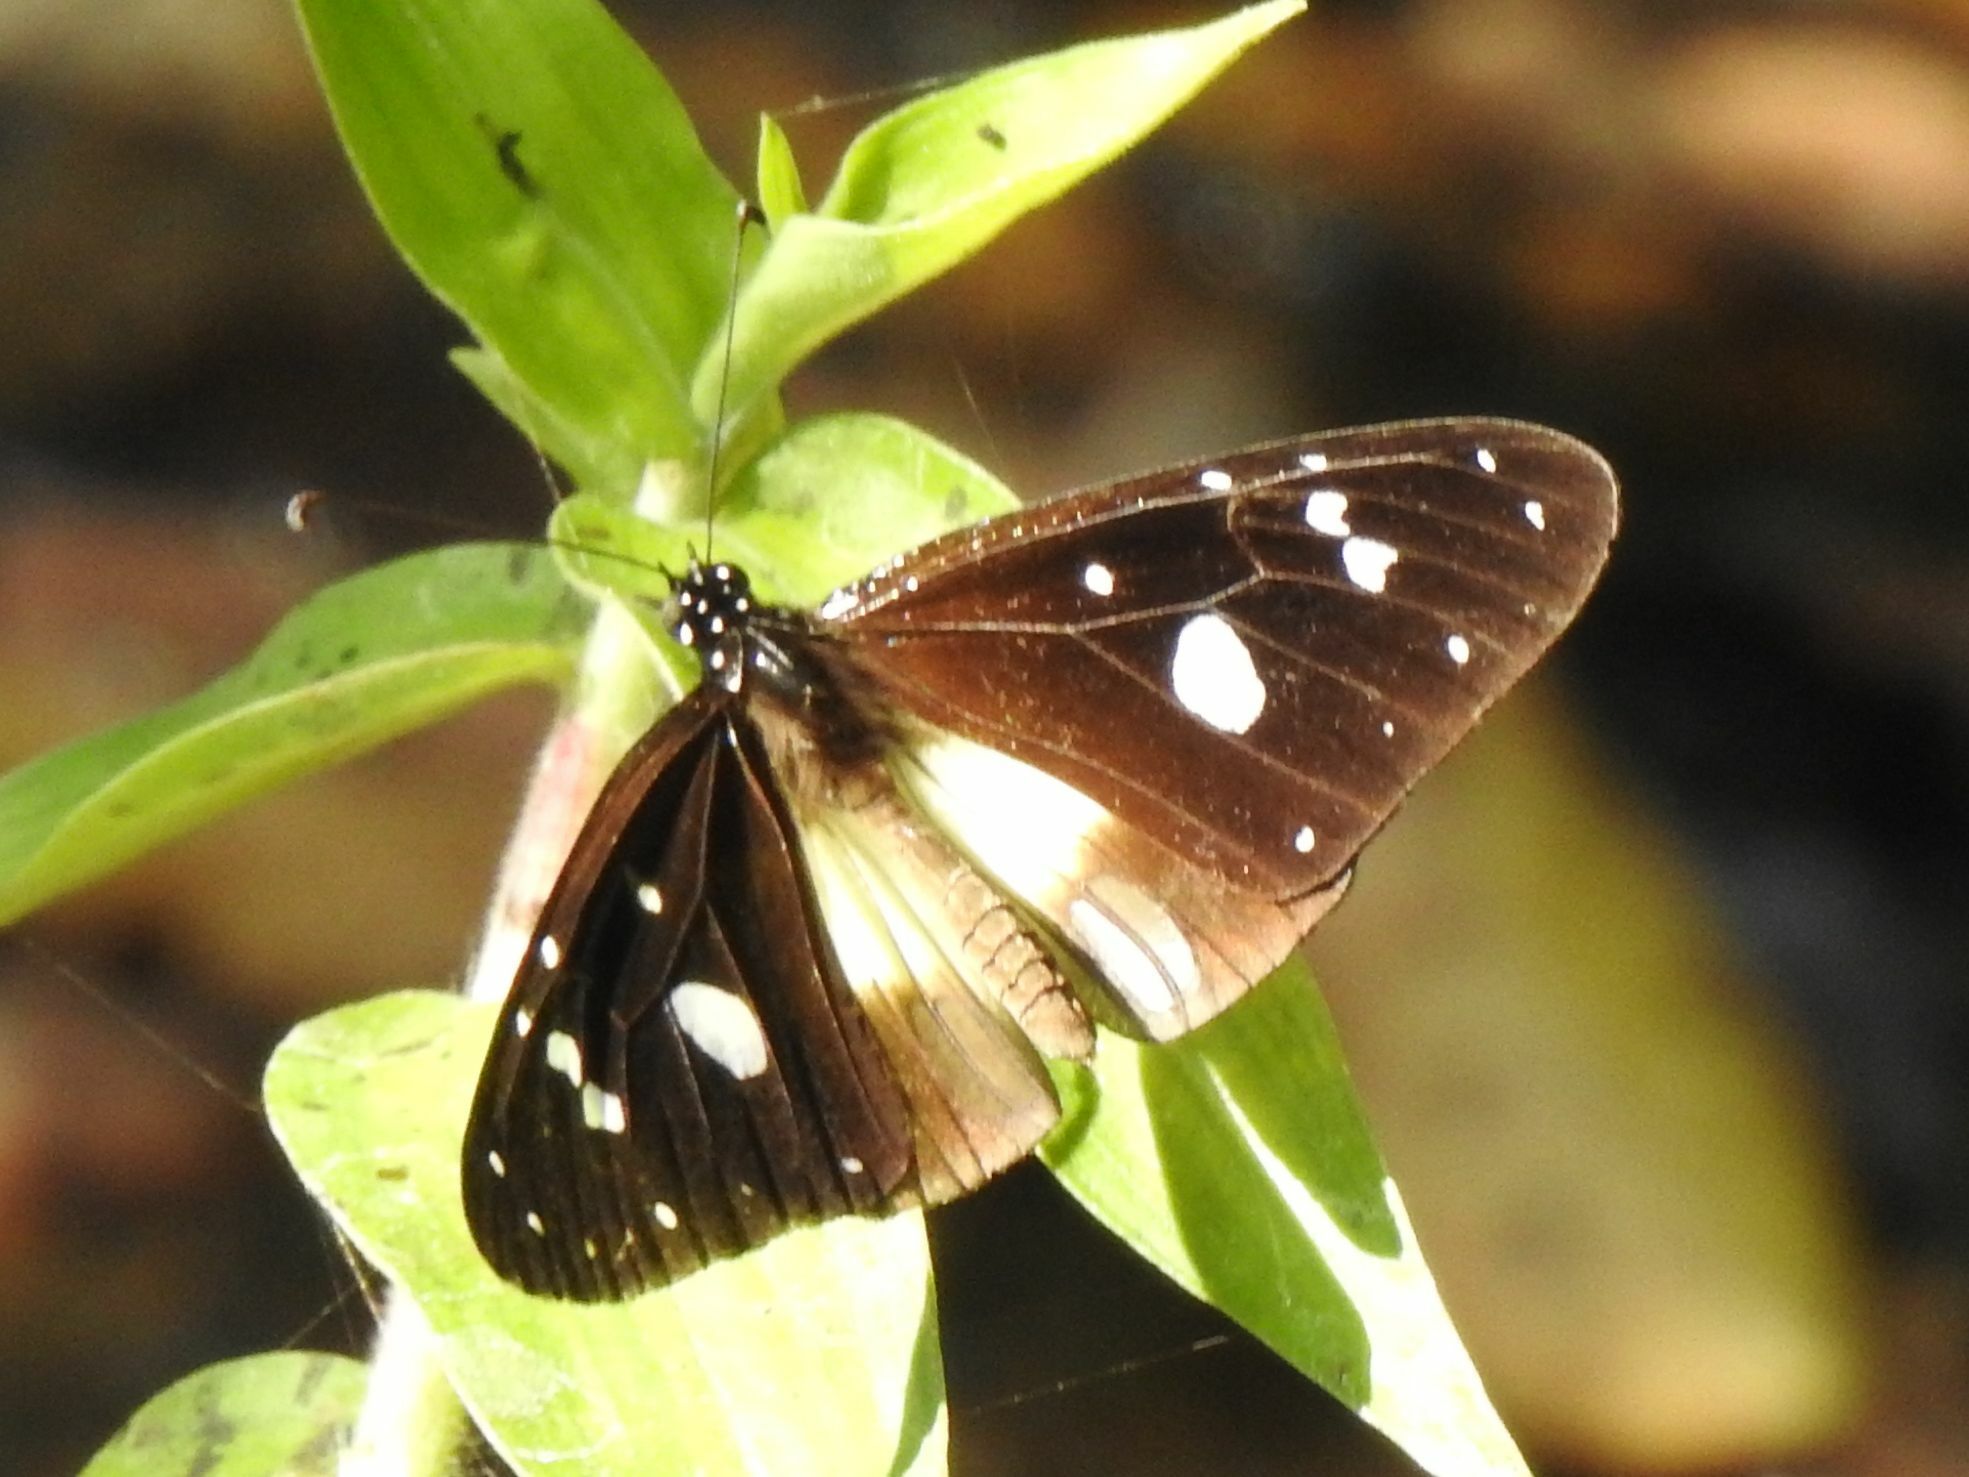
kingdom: Animalia
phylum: Arthropoda
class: Insecta
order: Lepidoptera
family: Nymphalidae
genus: Amauris
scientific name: Amauris albimaculata
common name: Layman
